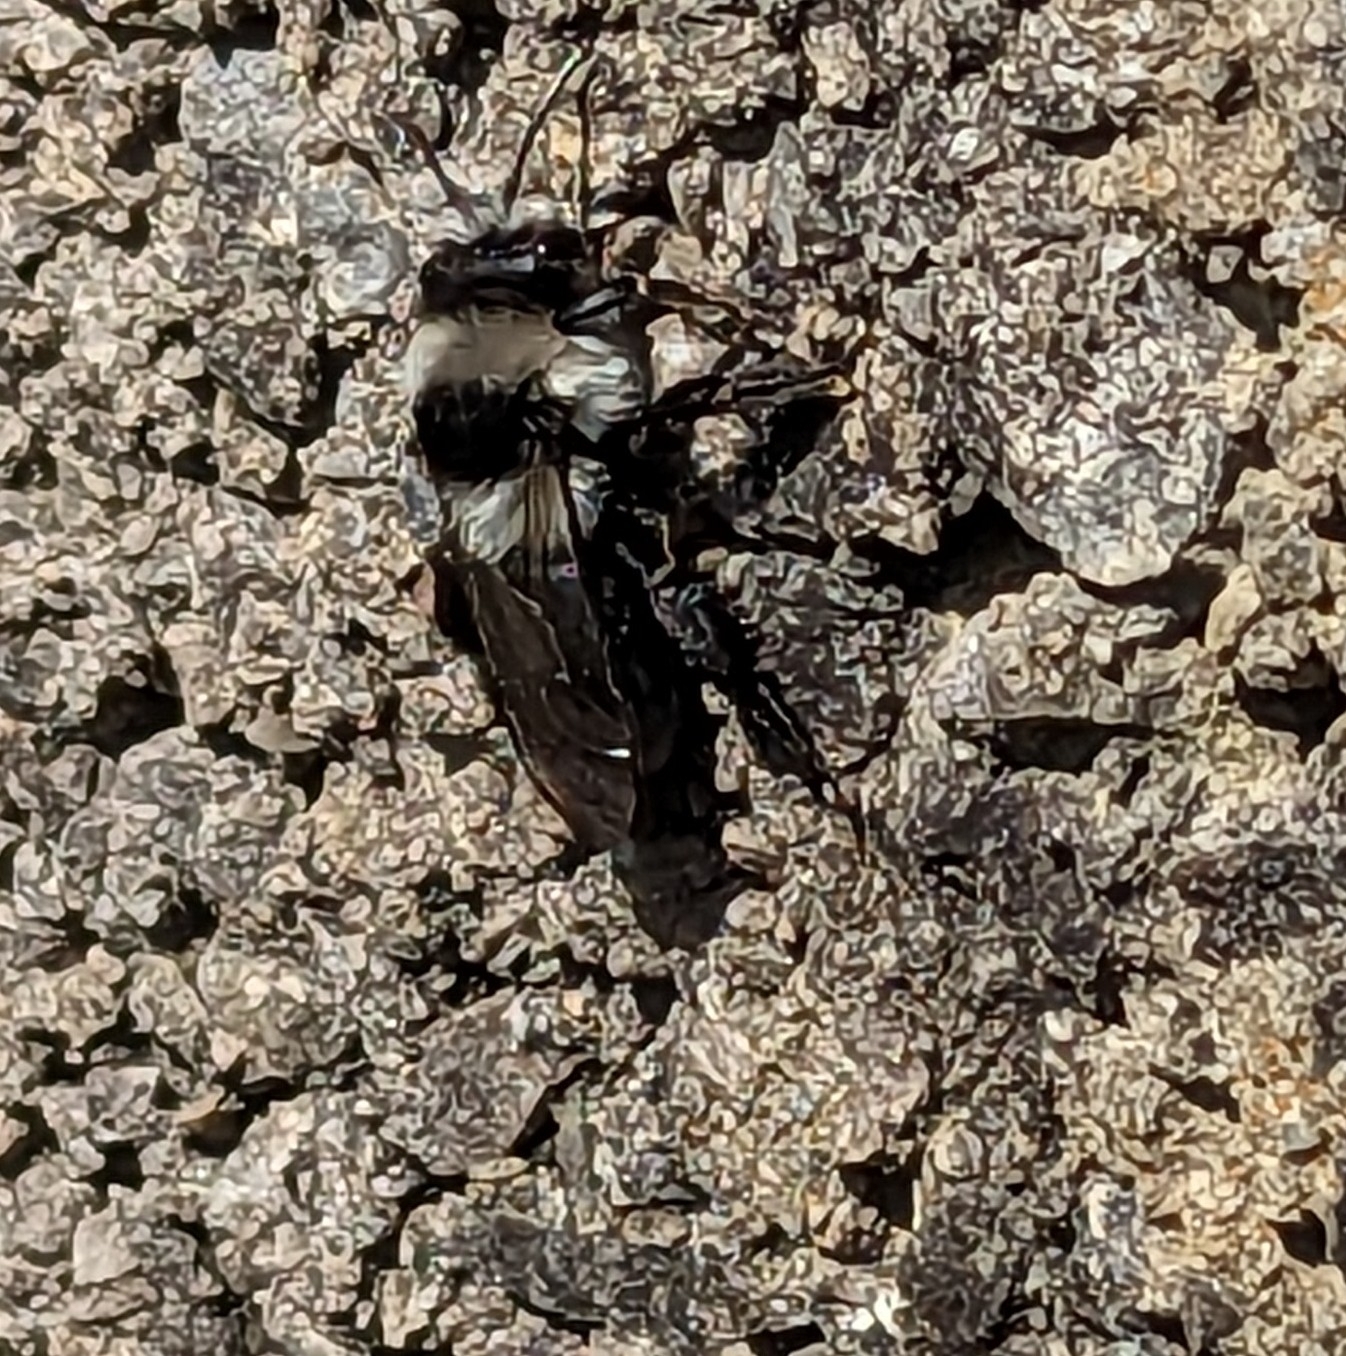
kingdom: Animalia
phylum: Arthropoda
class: Insecta
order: Hymenoptera
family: Andrenidae
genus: Andrena
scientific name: Andrena cineraria
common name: Ashy mining bee
